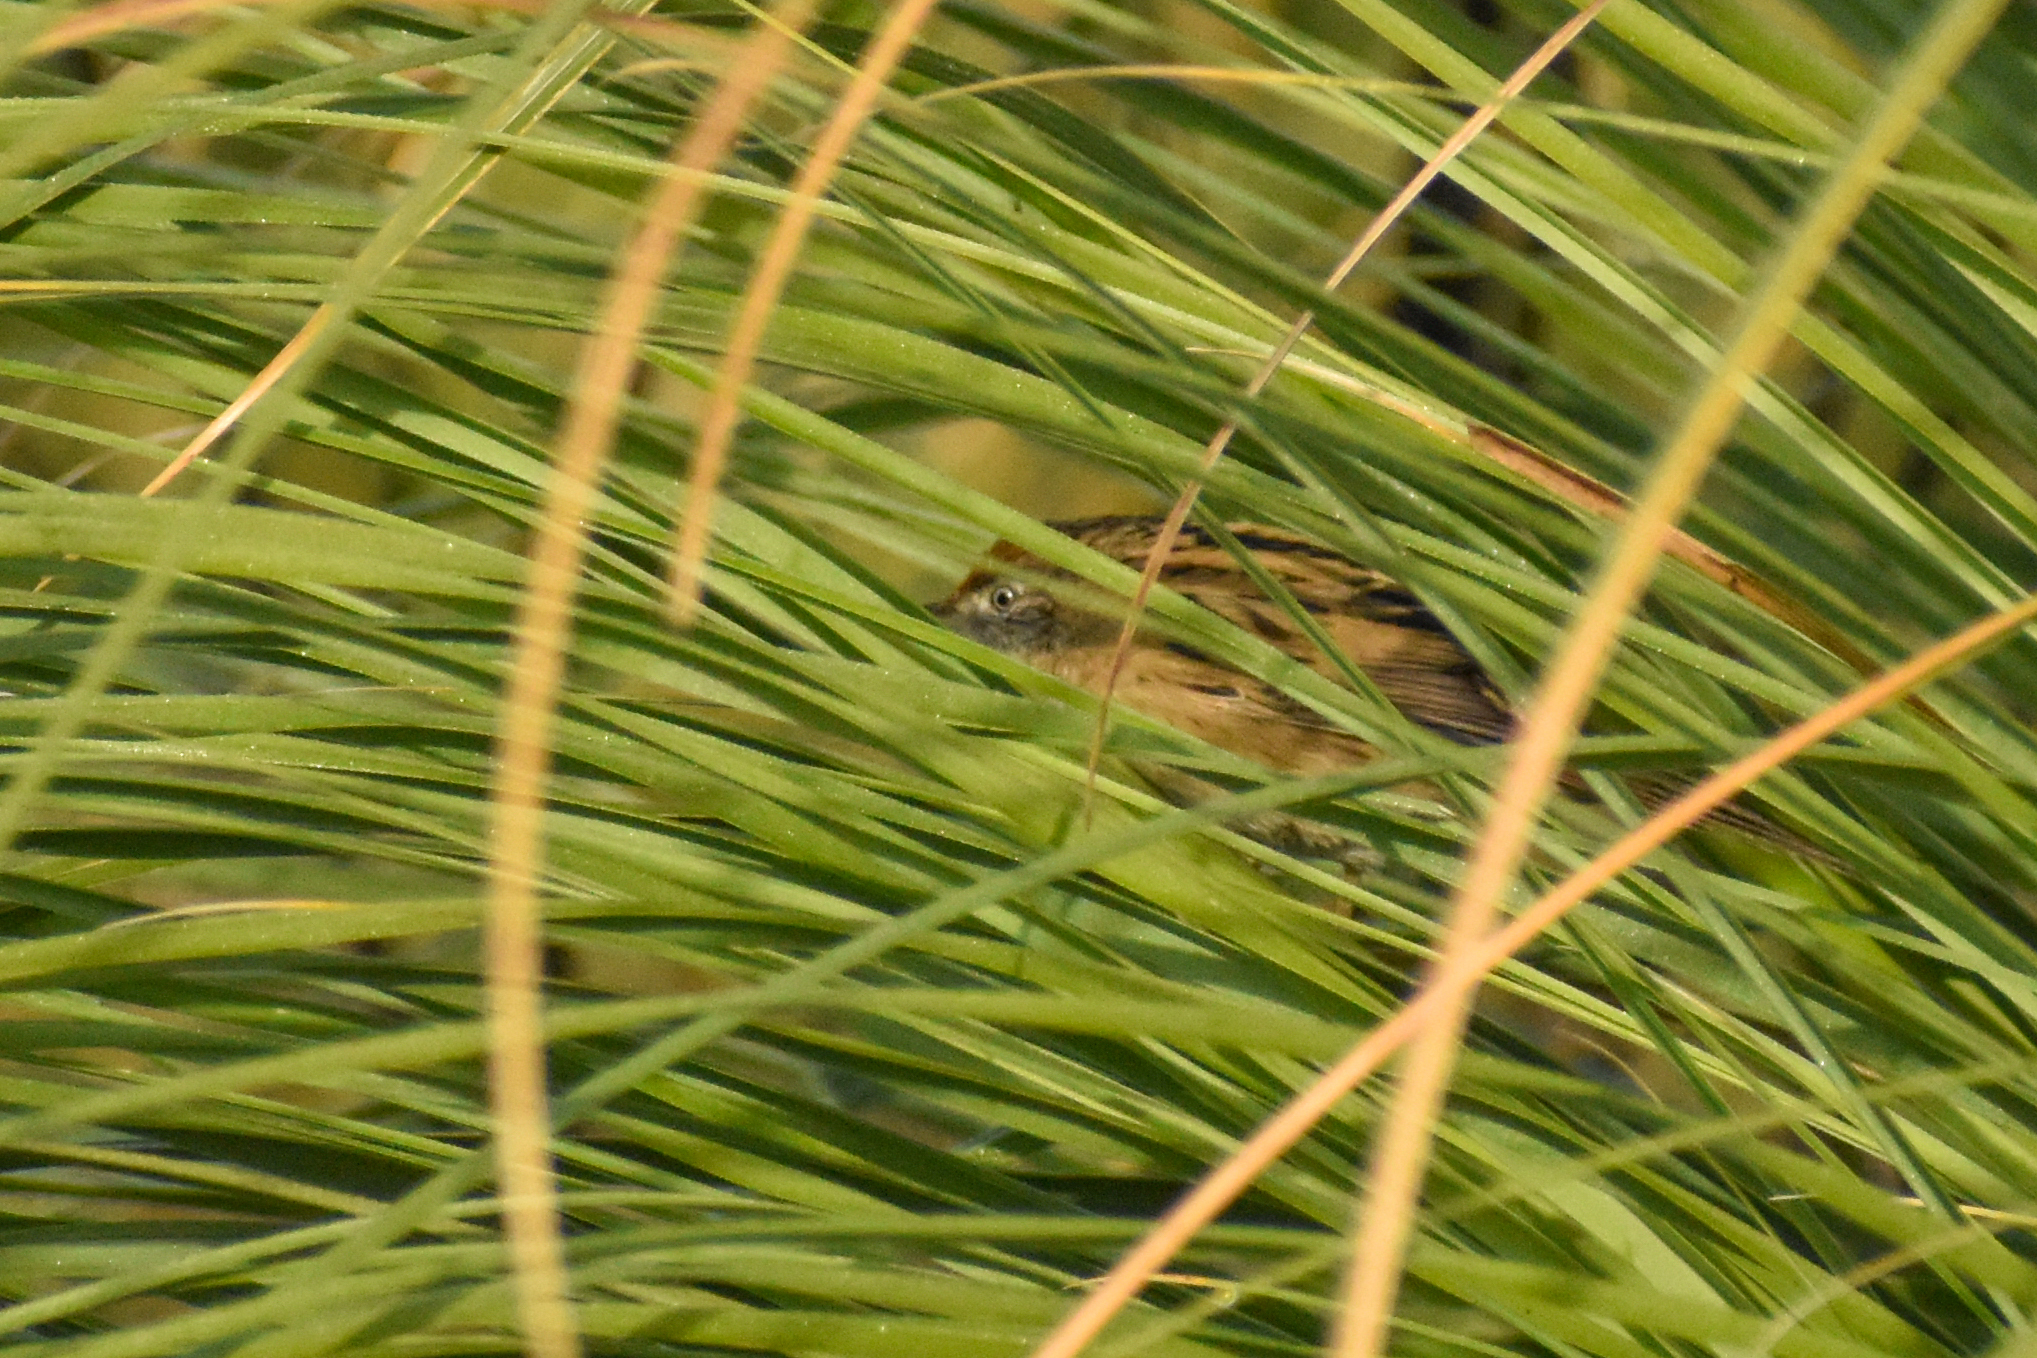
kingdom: Animalia
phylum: Chordata
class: Aves
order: Passeriformes
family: Furnariidae
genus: Spartonoica
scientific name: Spartonoica maluroides
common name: Bay-capped wren-spinetail
